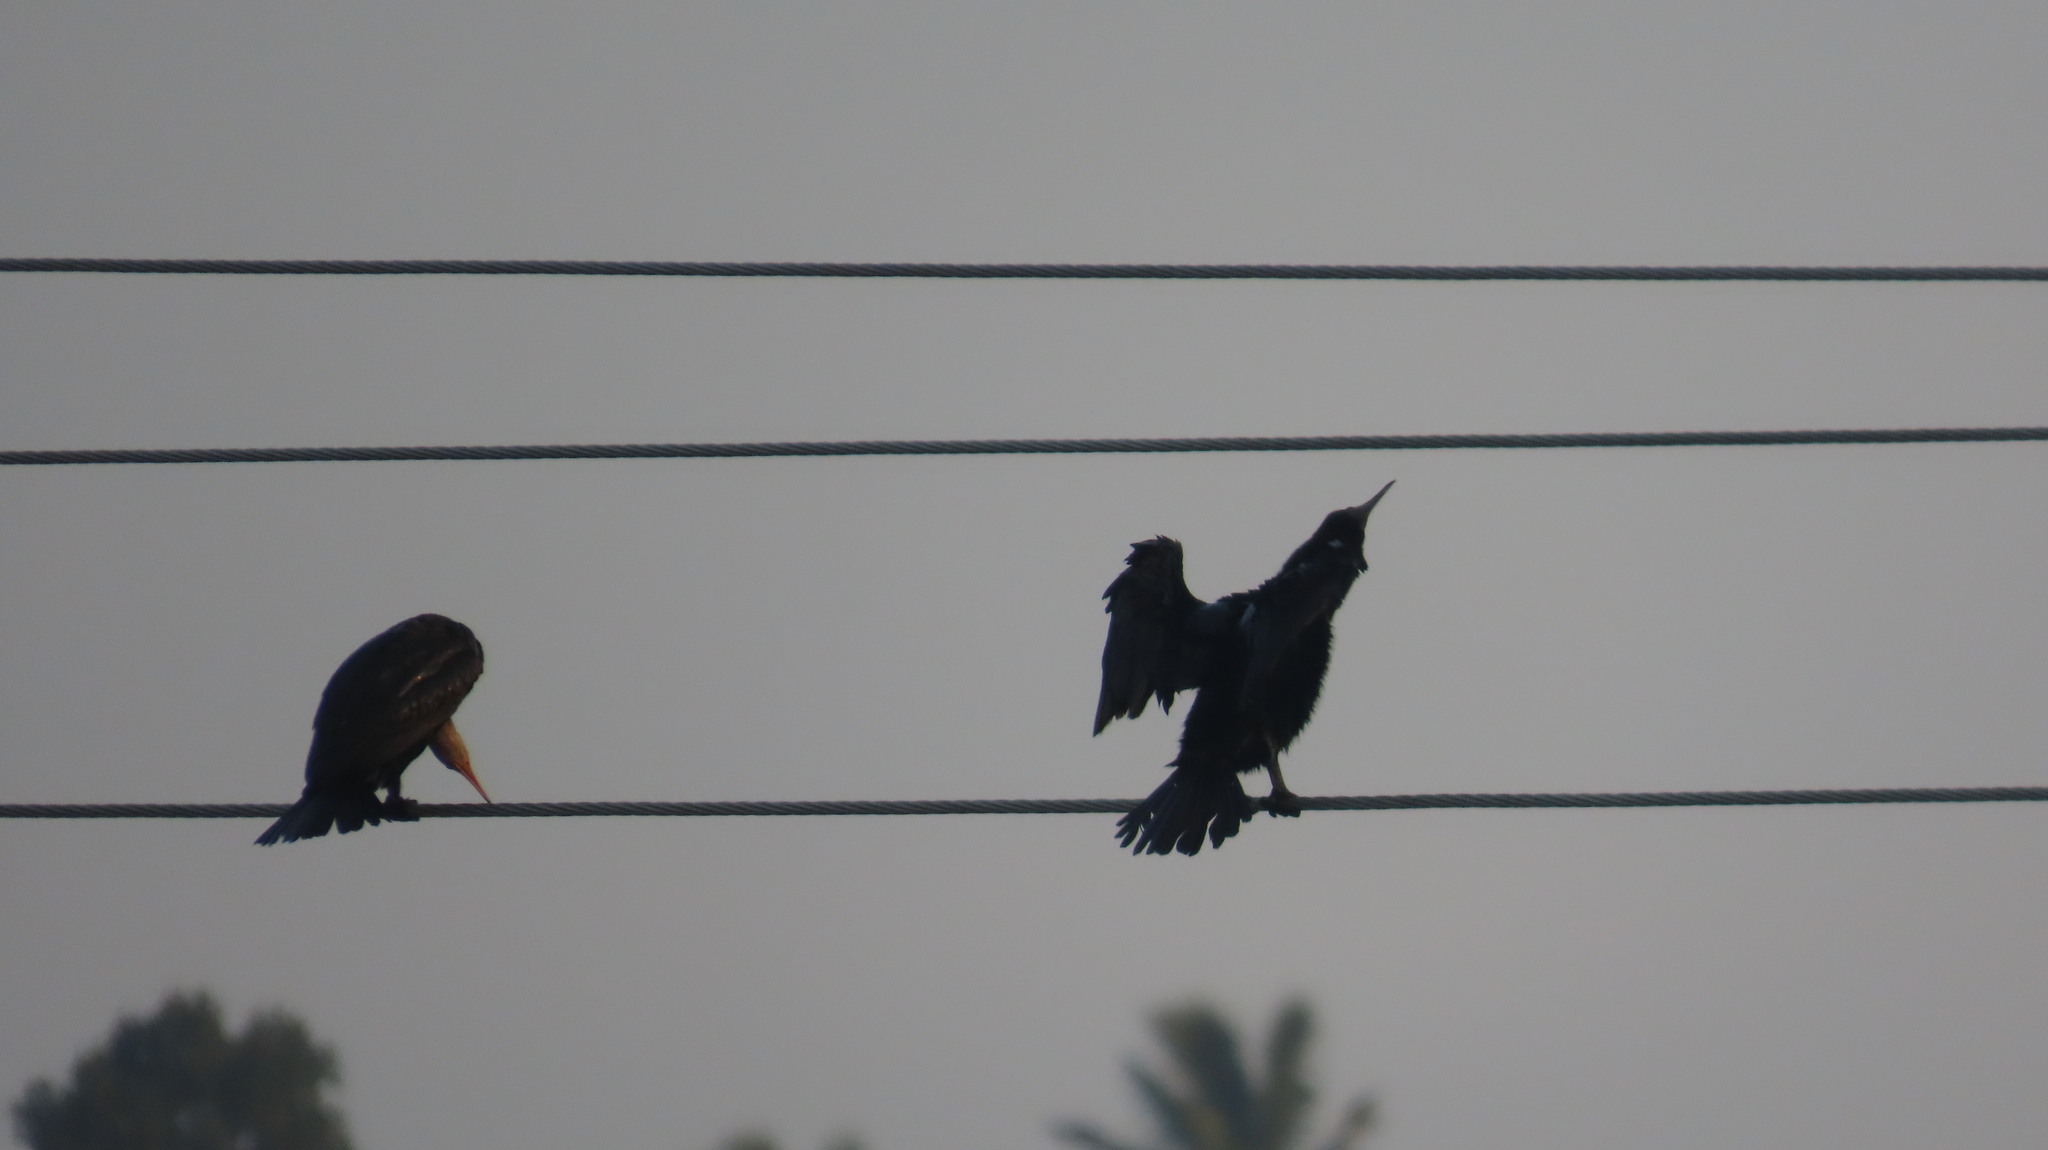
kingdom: Animalia
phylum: Chordata
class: Aves
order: Suliformes
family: Phalacrocoracidae
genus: Phalacrocorax
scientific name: Phalacrocorax fuscicollis
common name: Indian cormorant
